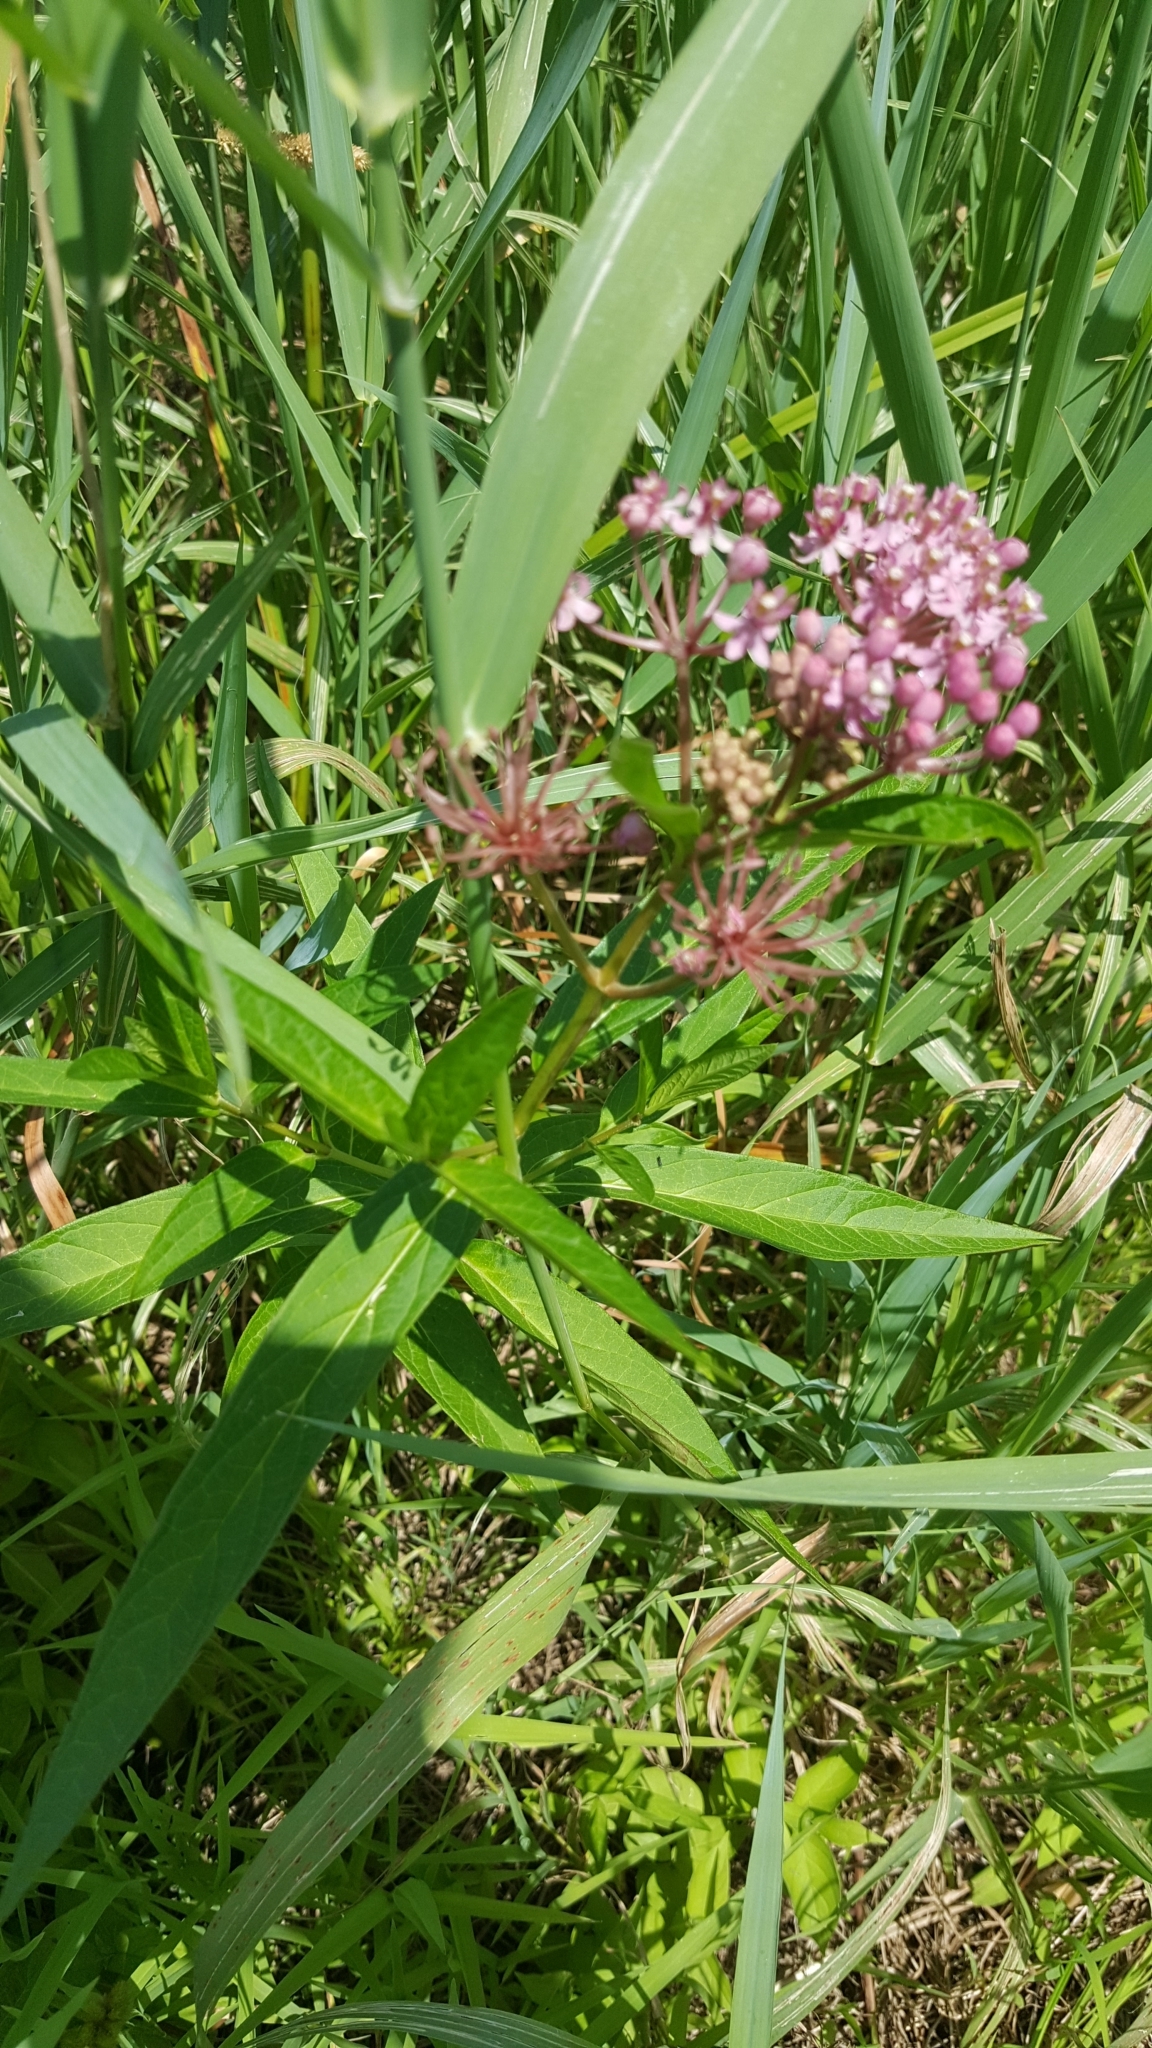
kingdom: Plantae
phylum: Tracheophyta
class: Magnoliopsida
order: Gentianales
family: Apocynaceae
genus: Asclepias
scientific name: Asclepias incarnata
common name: Swamp milkweed
